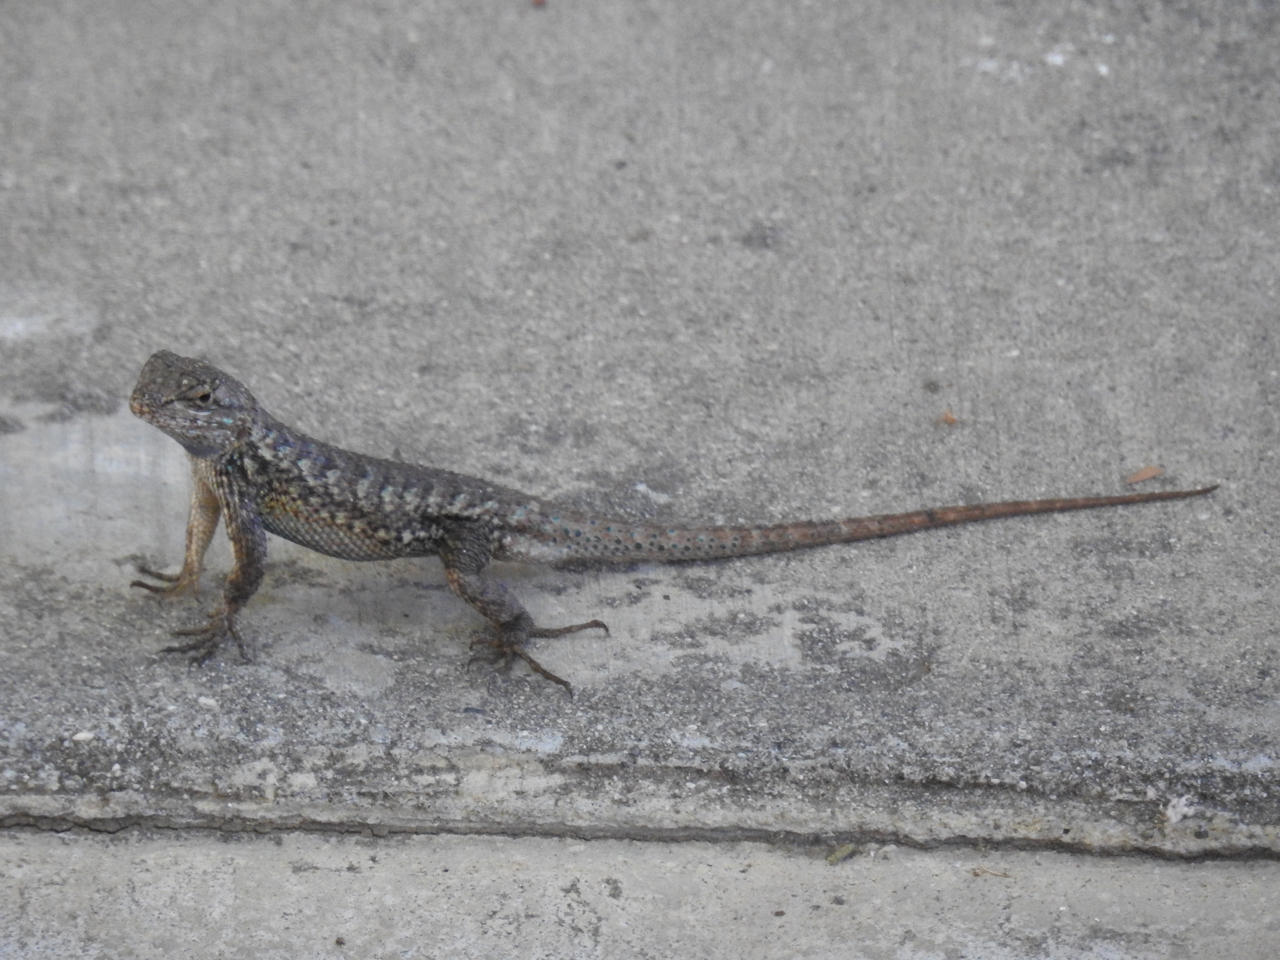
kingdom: Animalia
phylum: Chordata
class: Squamata
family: Phrynosomatidae
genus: Sceloporus
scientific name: Sceloporus occidentalis
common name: Western fence lizard
